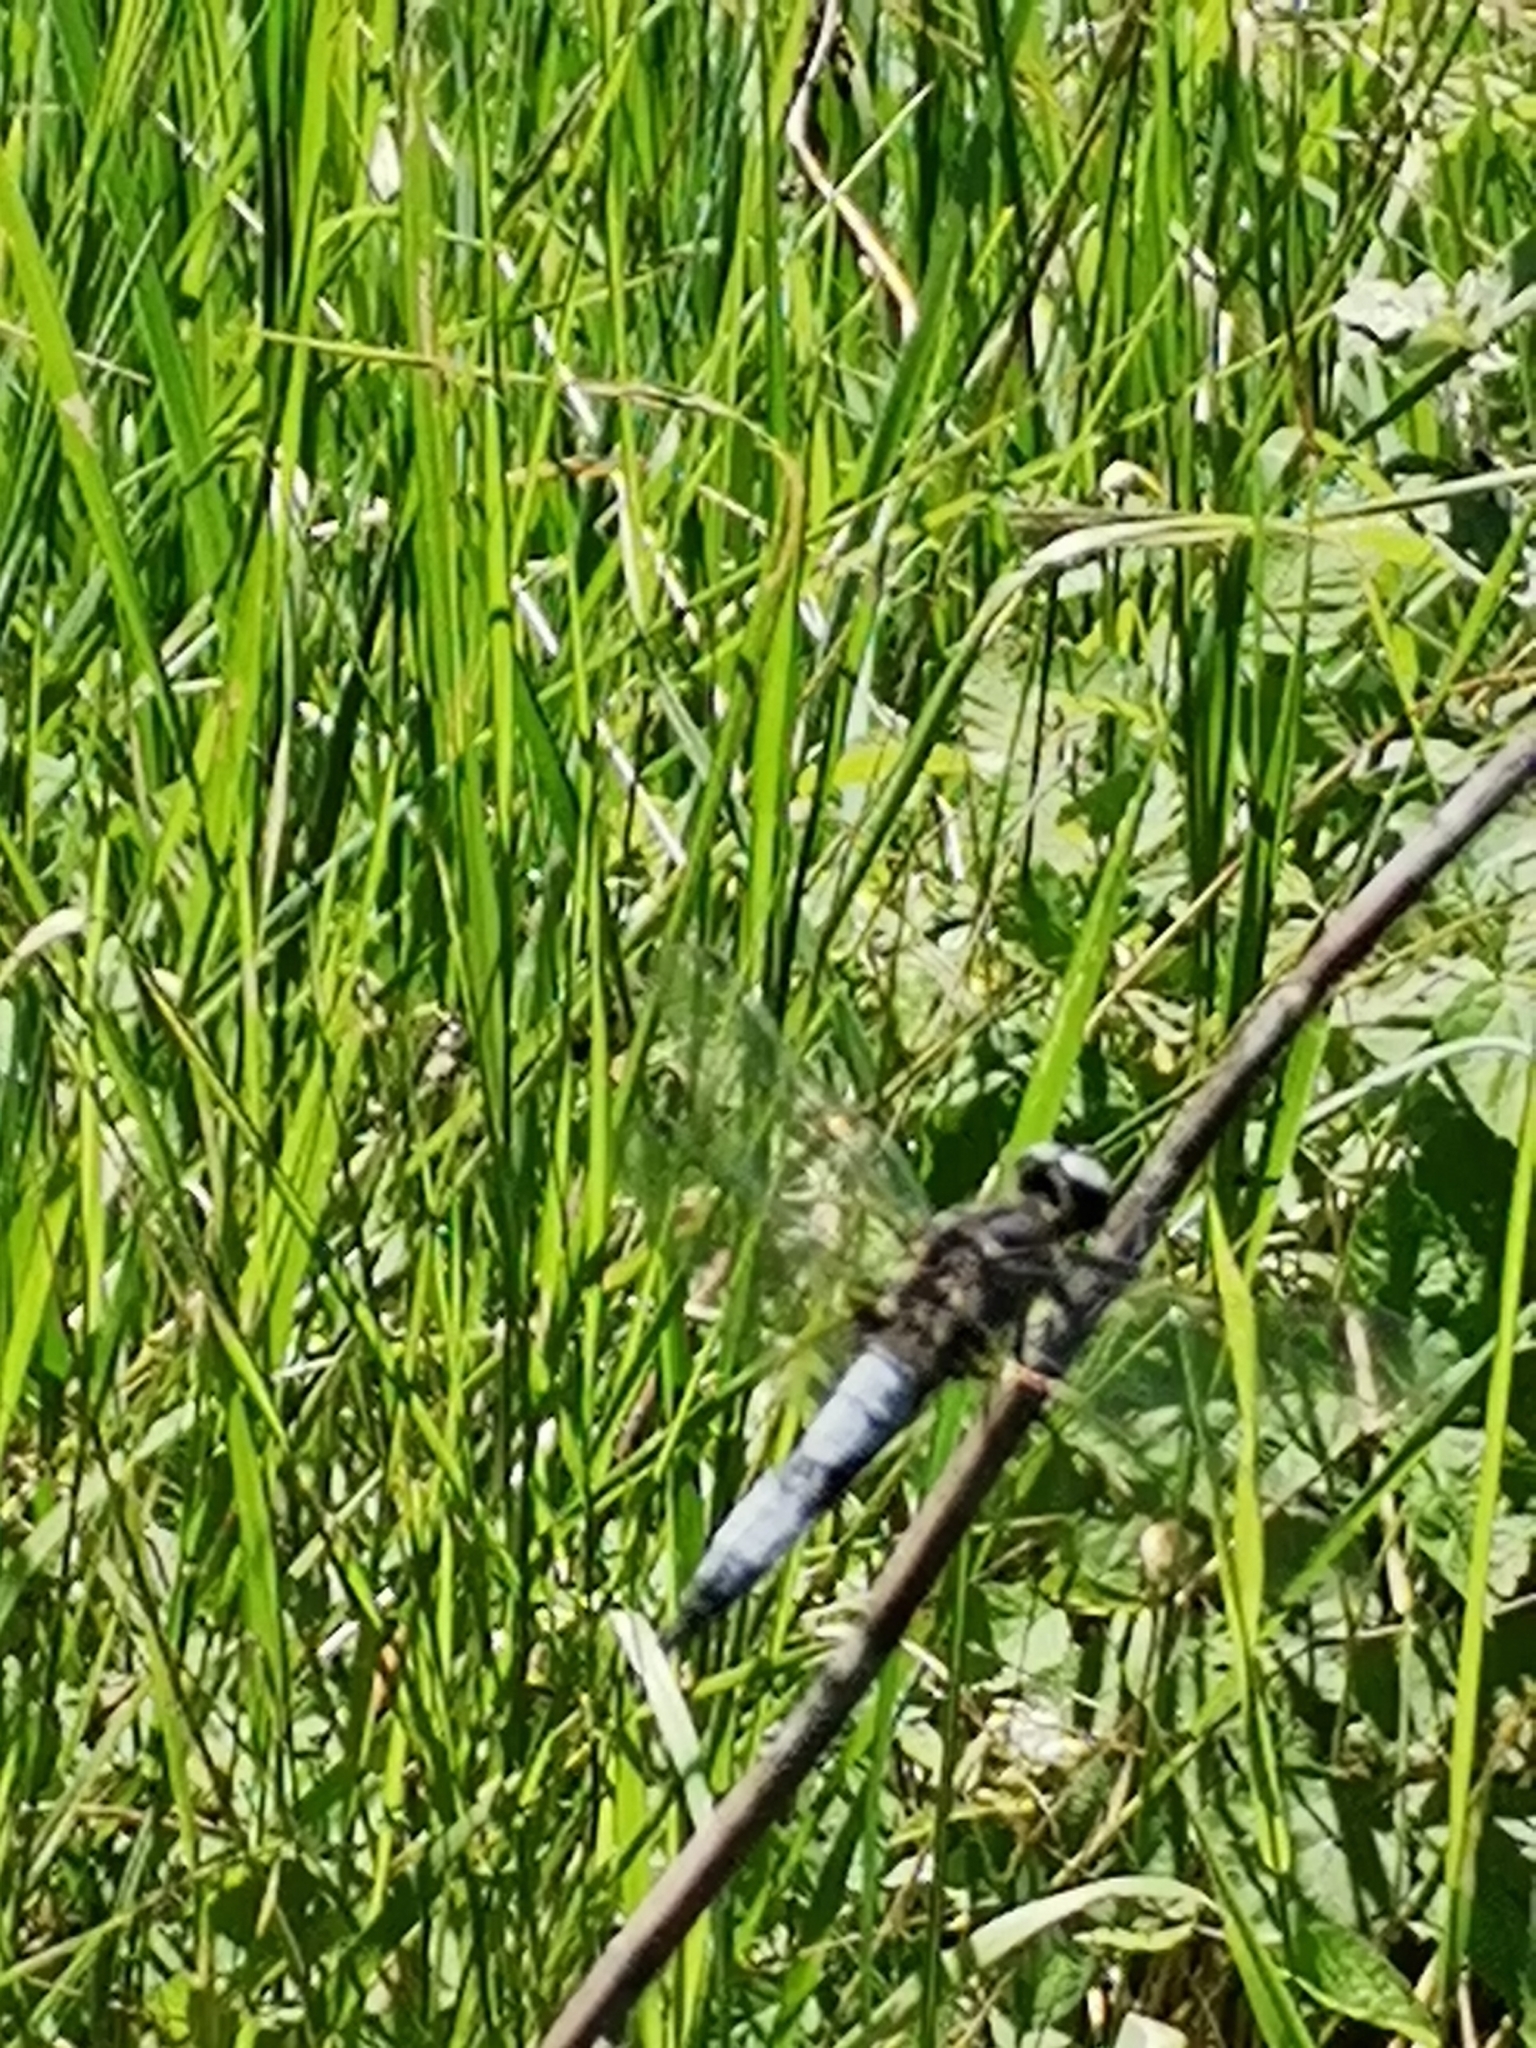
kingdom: Animalia
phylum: Arthropoda
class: Insecta
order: Odonata
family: Libellulidae
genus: Libellula
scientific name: Libellula fulva
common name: Blue chaser
